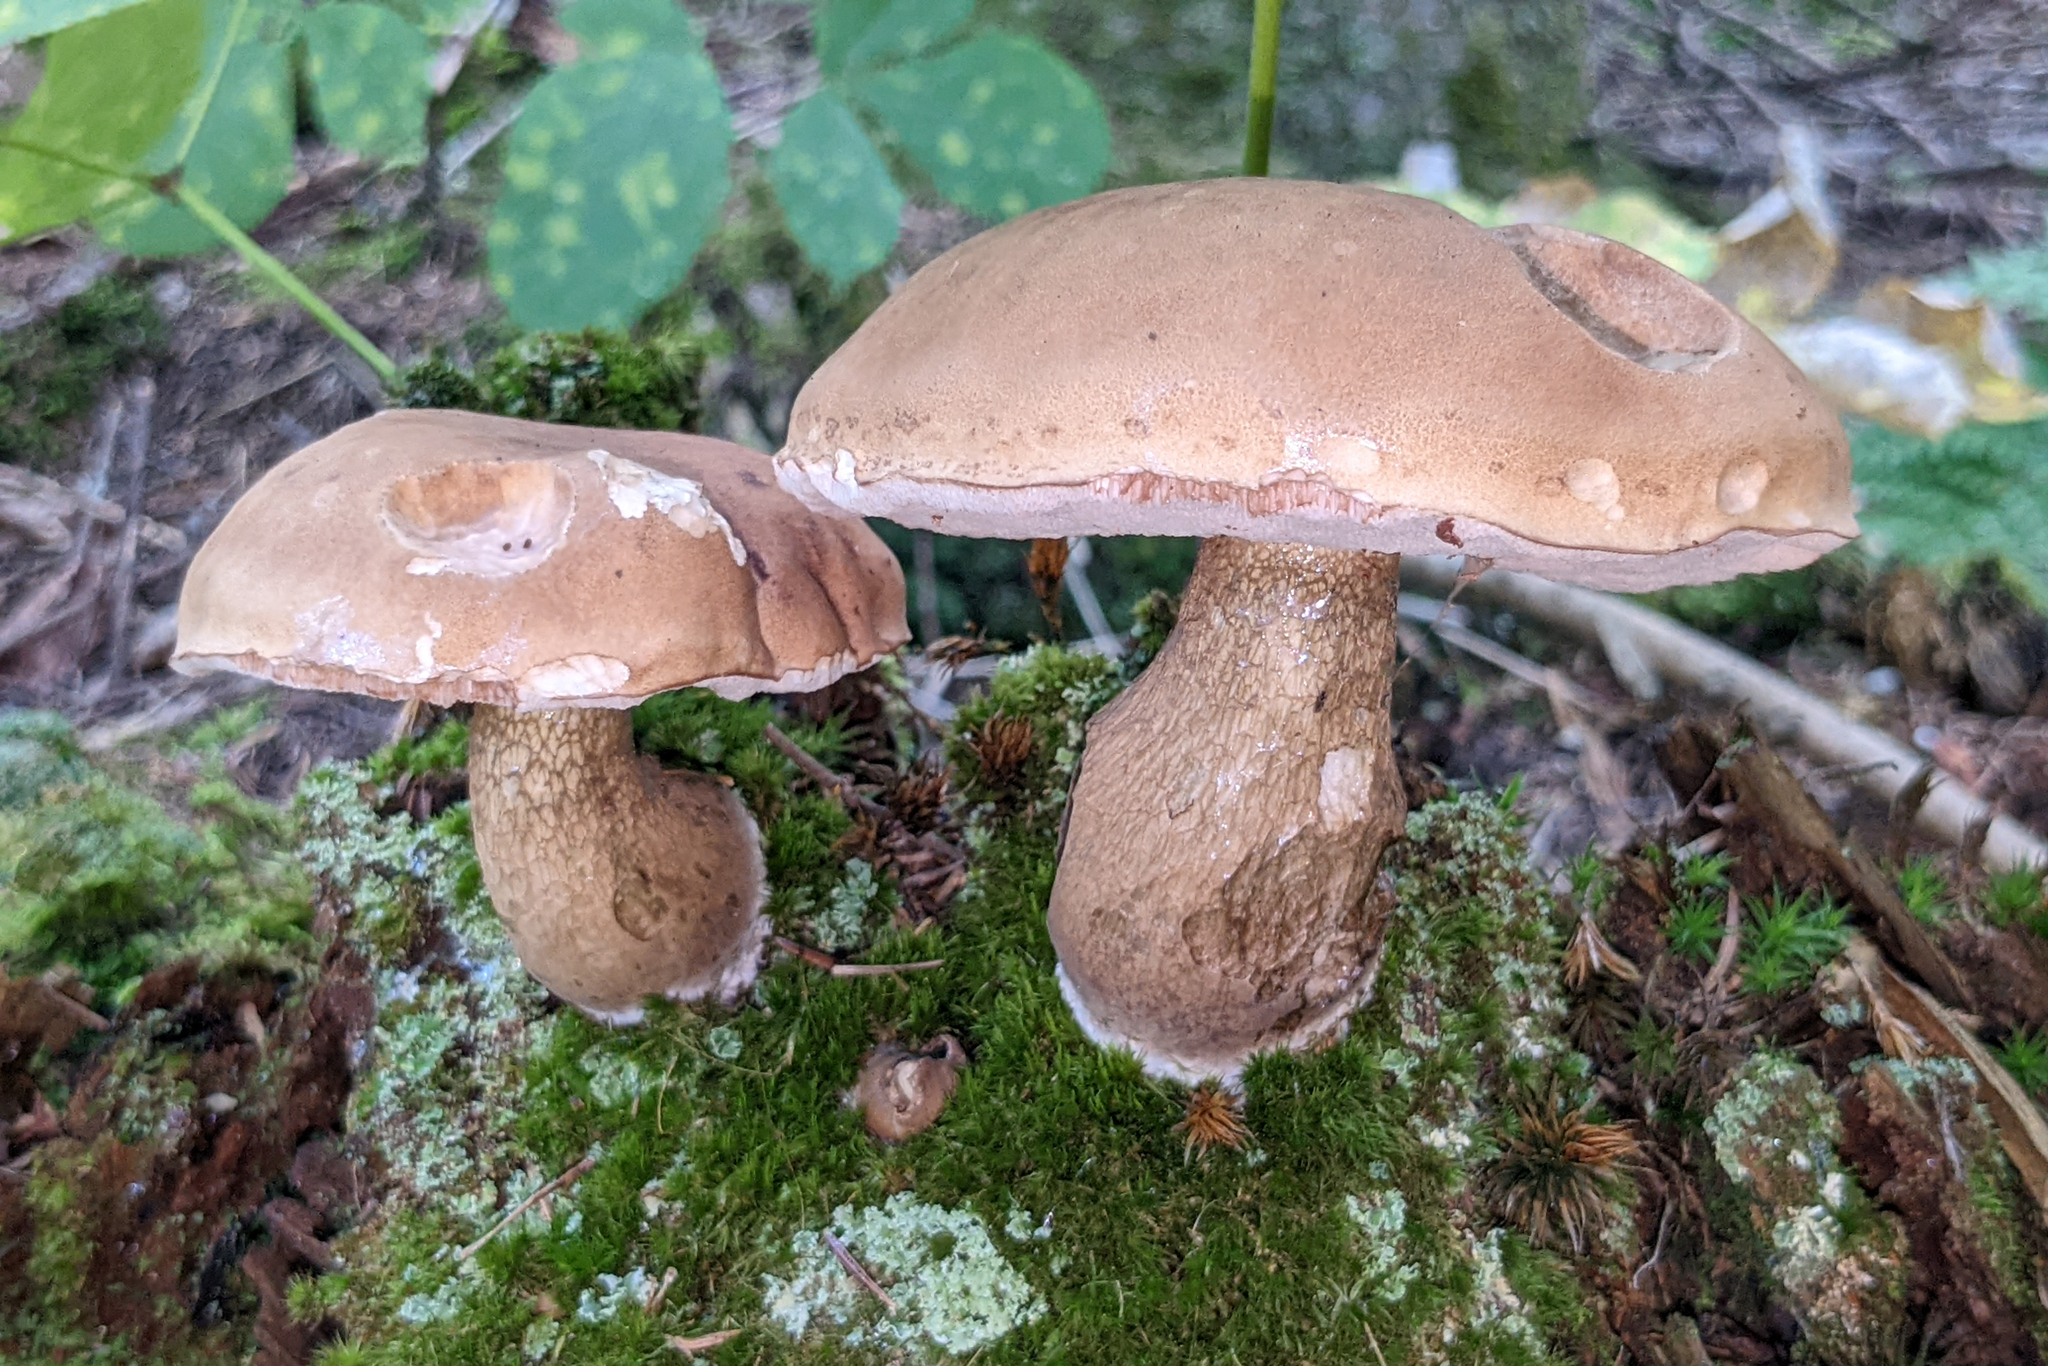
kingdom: Fungi
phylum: Basidiomycota
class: Agaricomycetes
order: Boletales
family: Boletaceae
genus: Tylopilus
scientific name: Tylopilus felleus
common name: Bitter bolete
